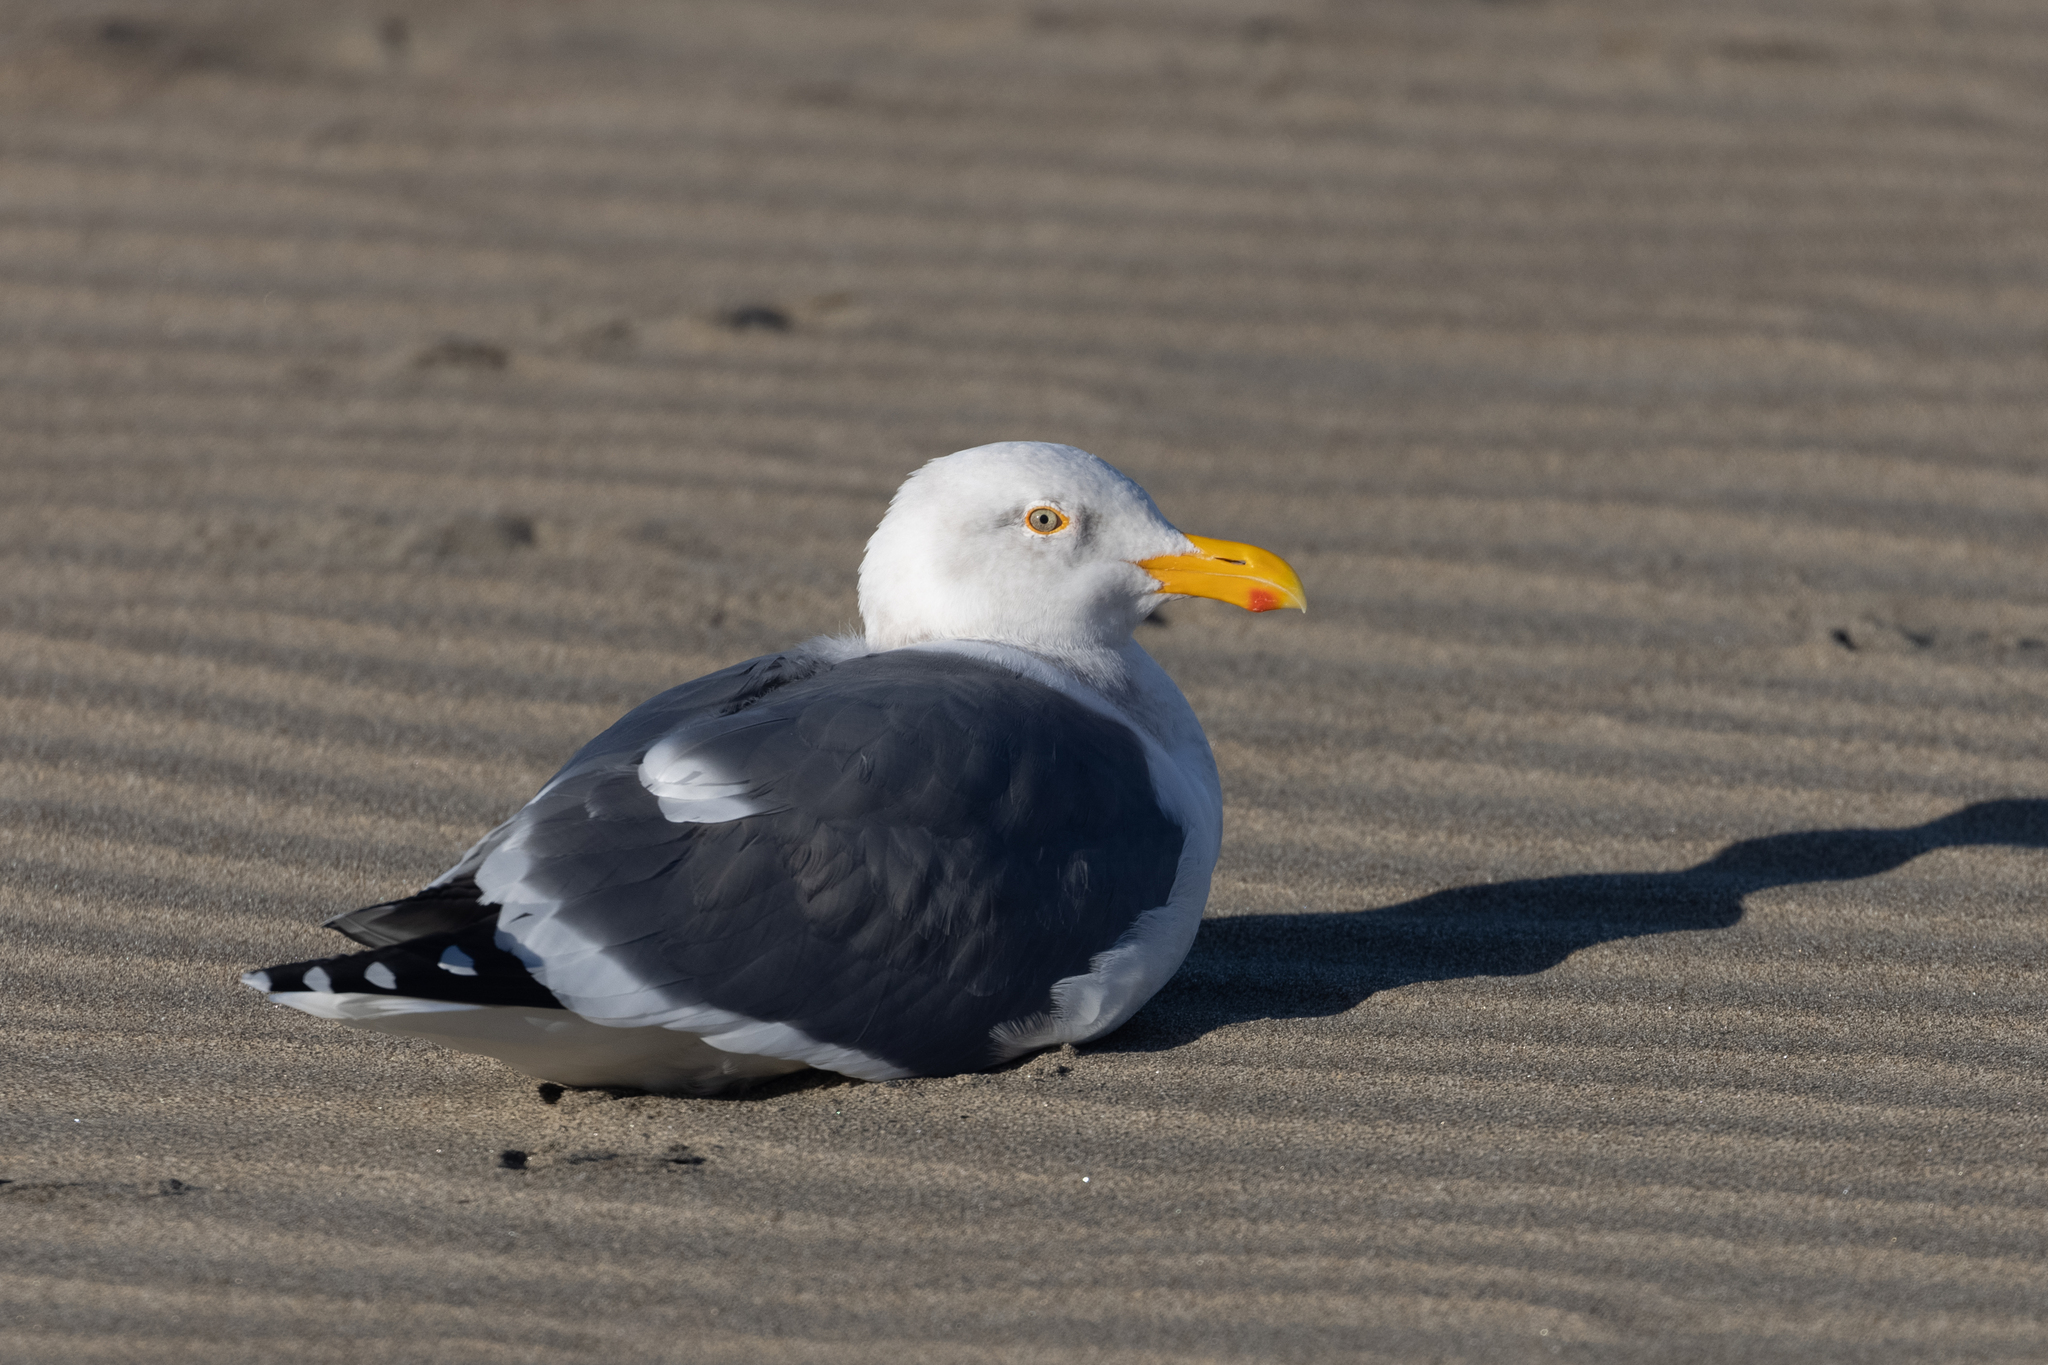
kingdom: Animalia
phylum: Chordata
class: Aves
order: Charadriiformes
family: Laridae
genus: Larus
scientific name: Larus occidentalis
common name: Western gull
